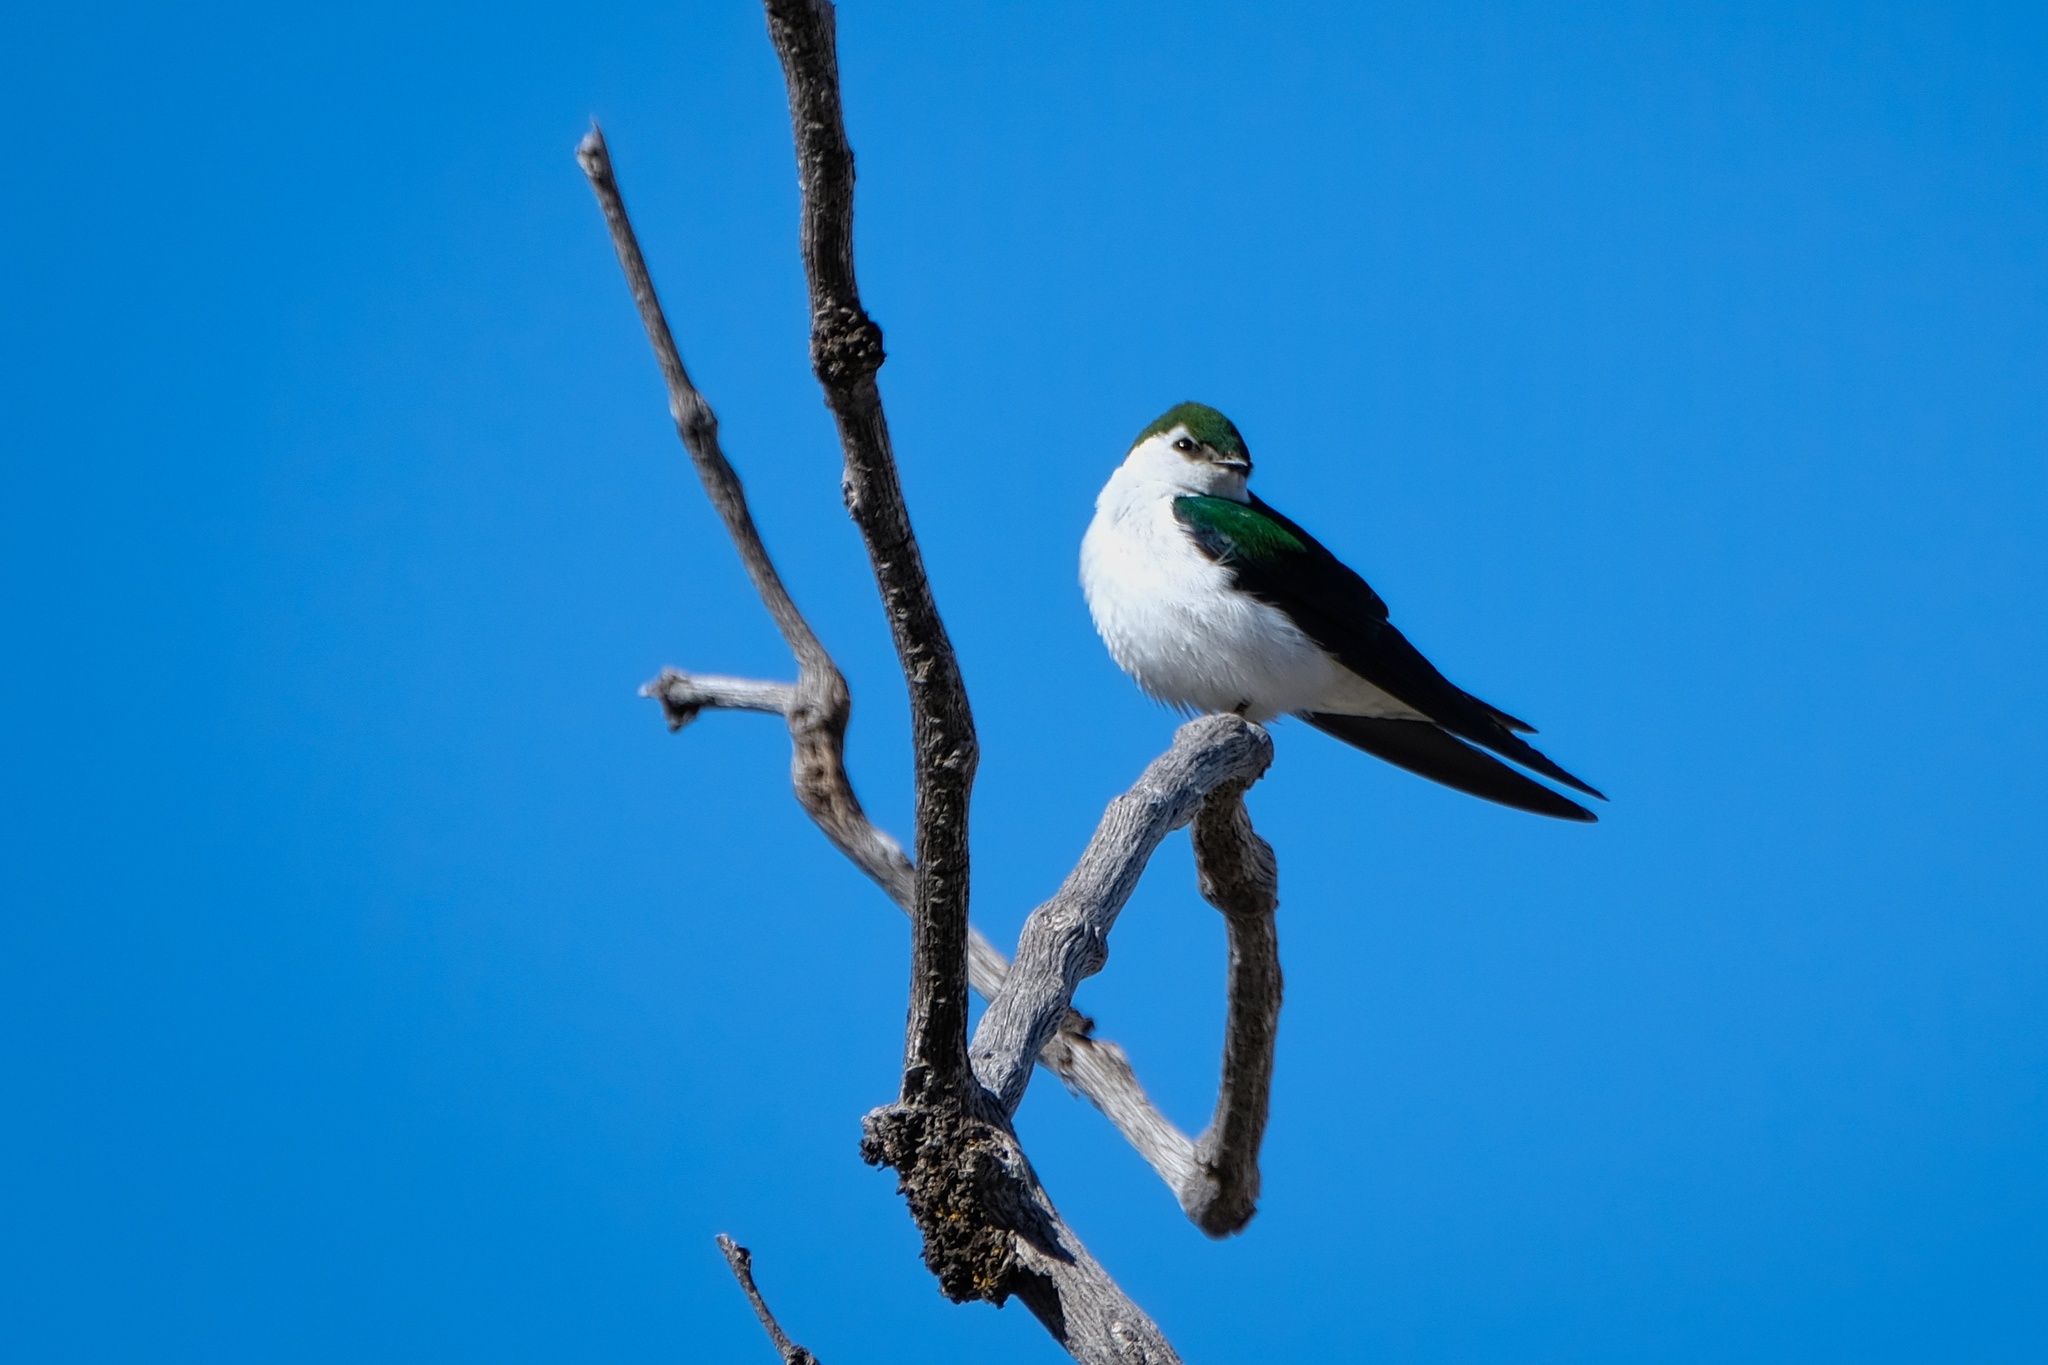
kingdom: Animalia
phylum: Chordata
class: Aves
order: Passeriformes
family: Hirundinidae
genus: Tachycineta
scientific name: Tachycineta thalassina
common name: Violet-green swallow
